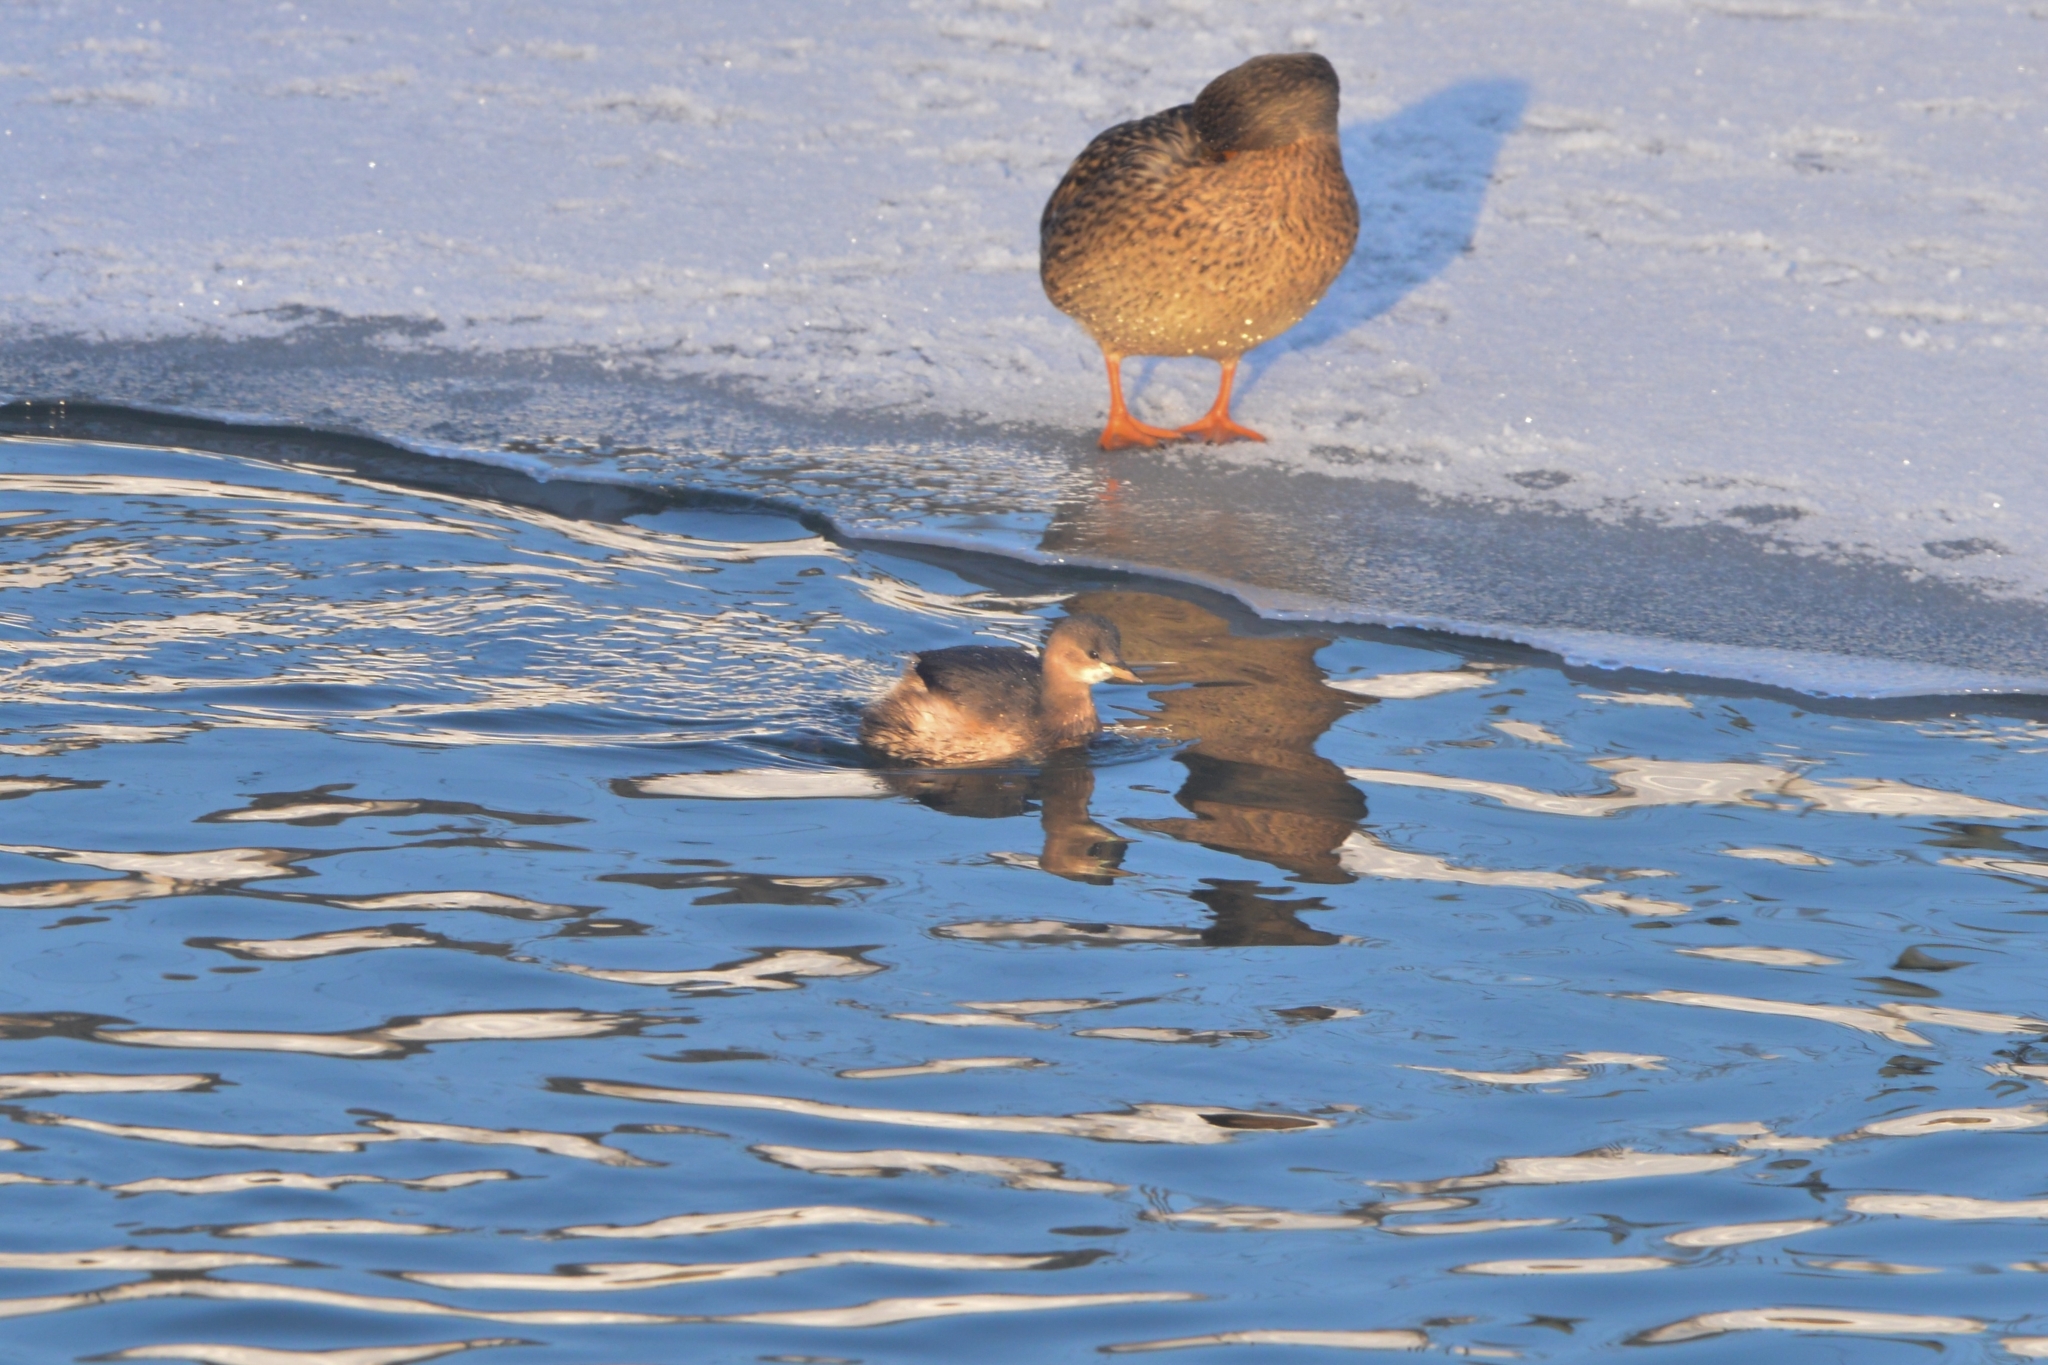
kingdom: Animalia
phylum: Chordata
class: Aves
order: Podicipediformes
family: Podicipedidae
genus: Tachybaptus
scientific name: Tachybaptus ruficollis
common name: Little grebe
